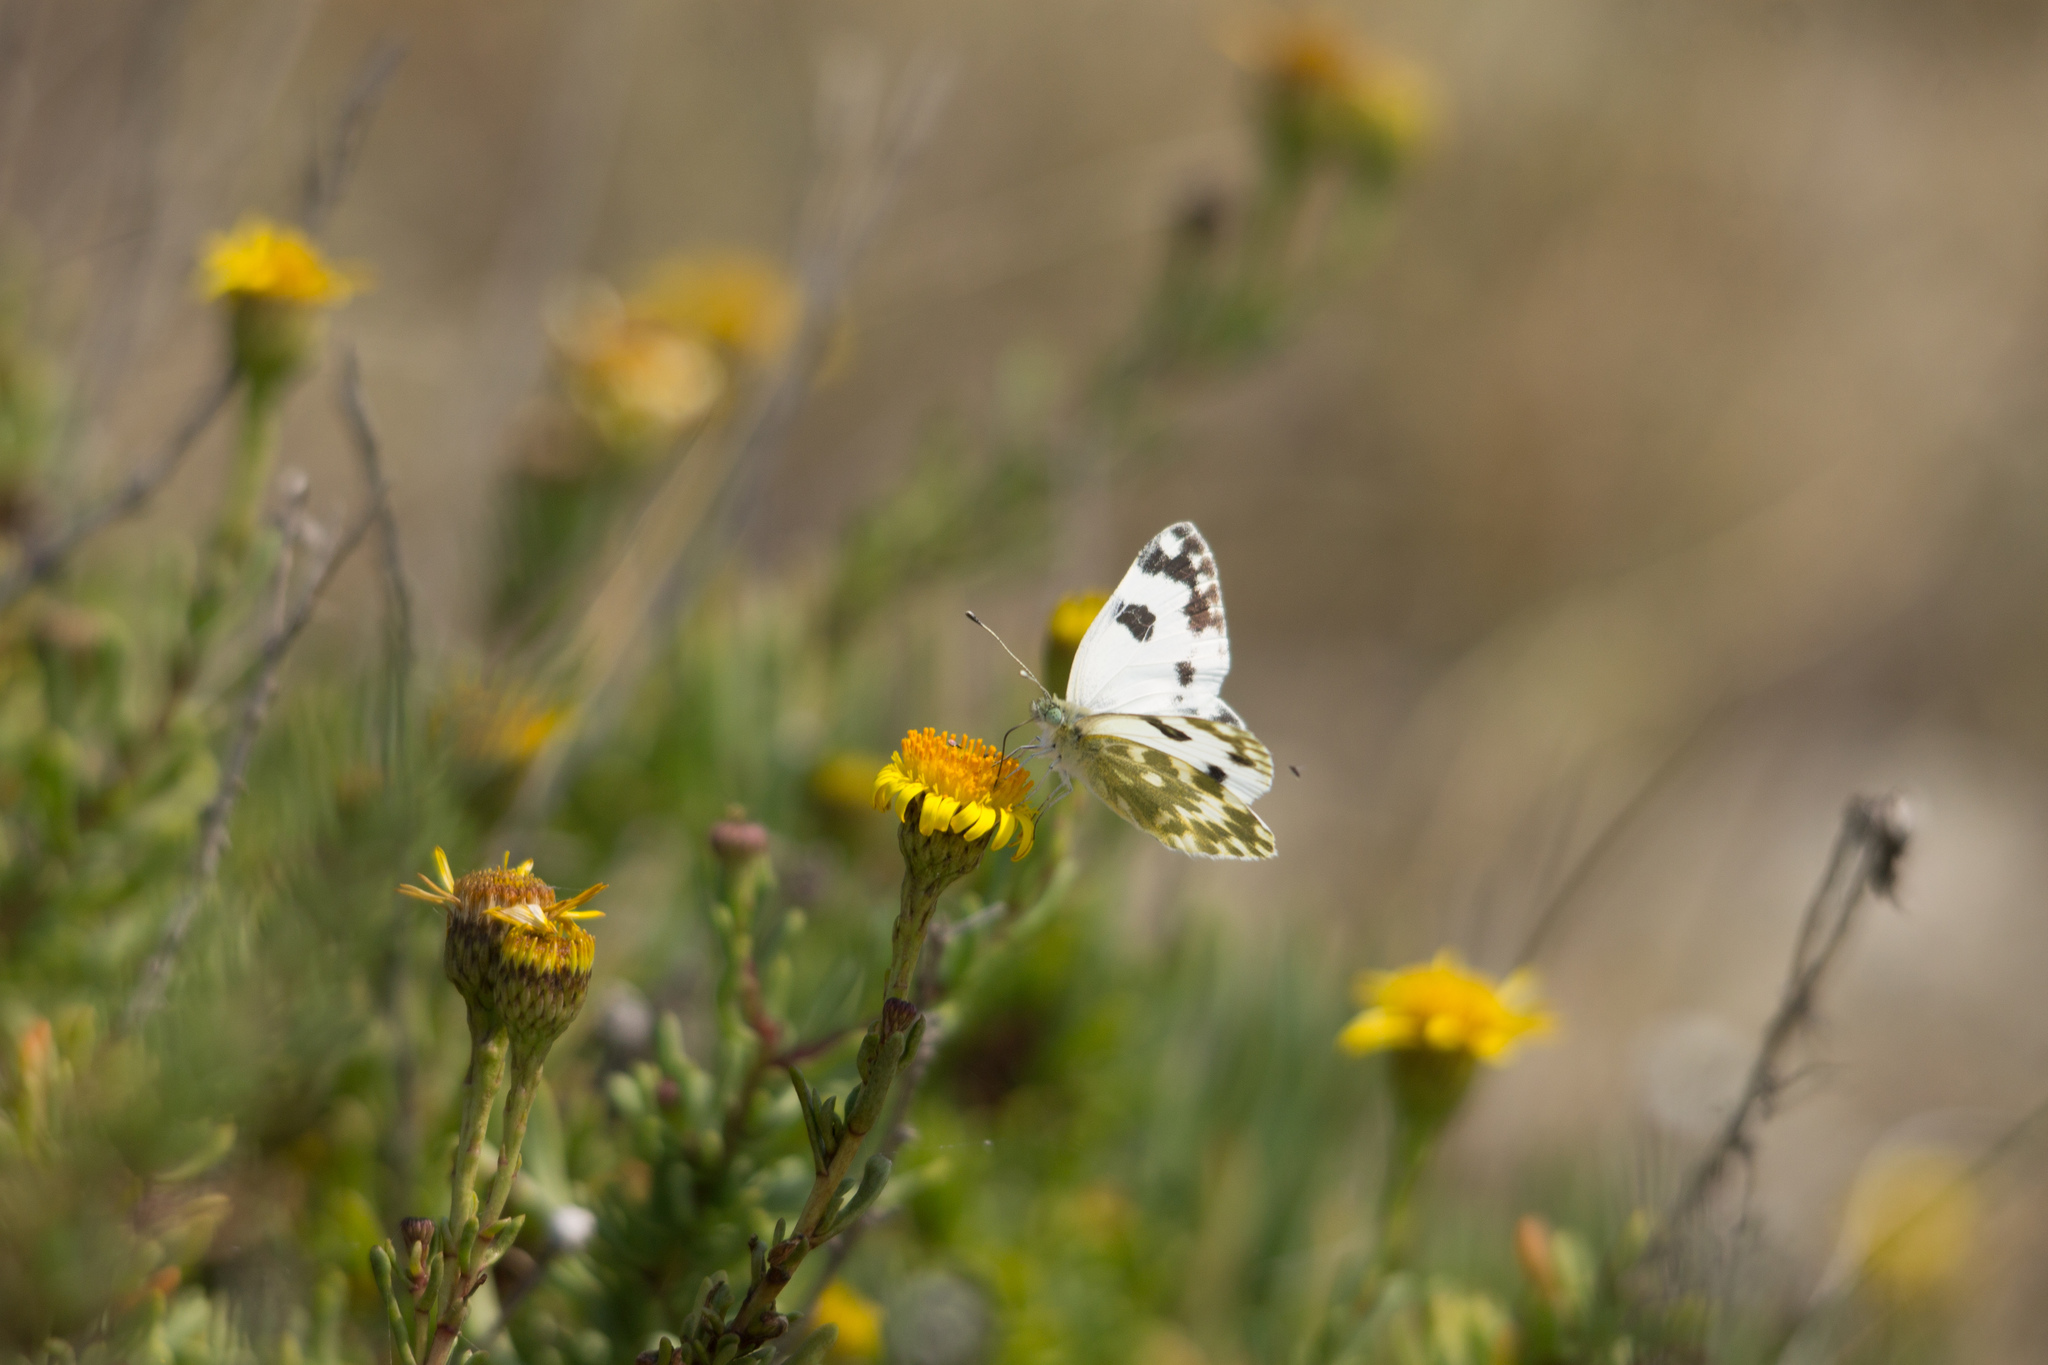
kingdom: Animalia
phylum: Arthropoda
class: Insecta
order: Lepidoptera
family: Pieridae
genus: Pontia
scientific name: Pontia daplidice
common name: Bath white
